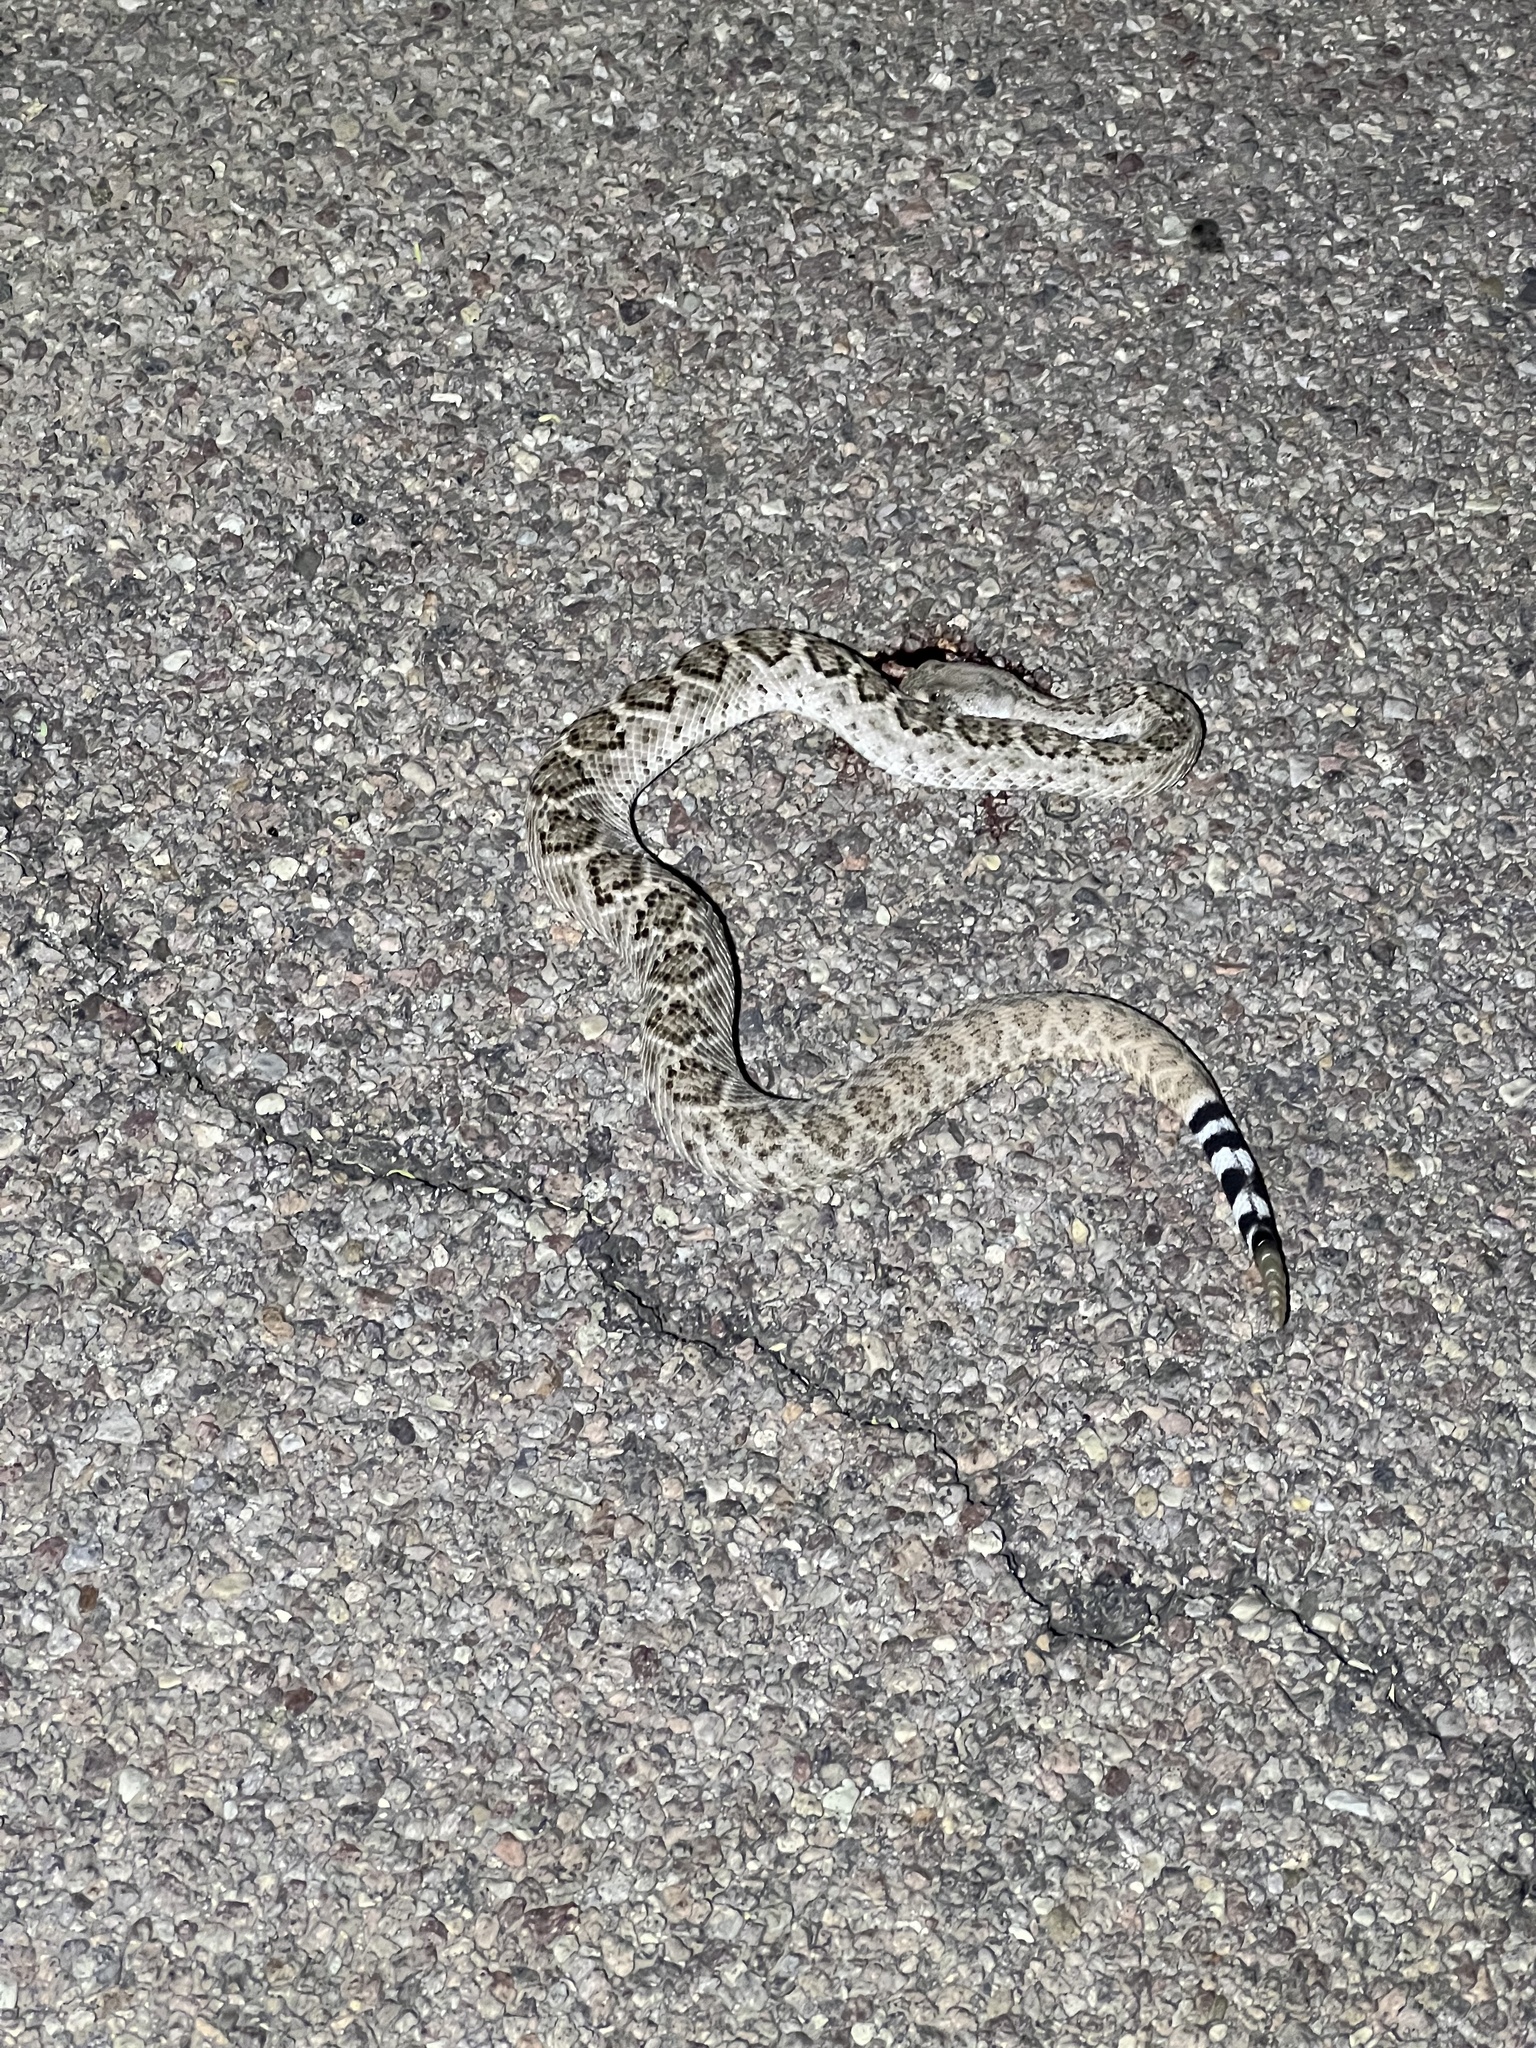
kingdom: Animalia
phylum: Chordata
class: Squamata
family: Viperidae
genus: Crotalus
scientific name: Crotalus atrox
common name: Western diamond-backed rattlesnake
